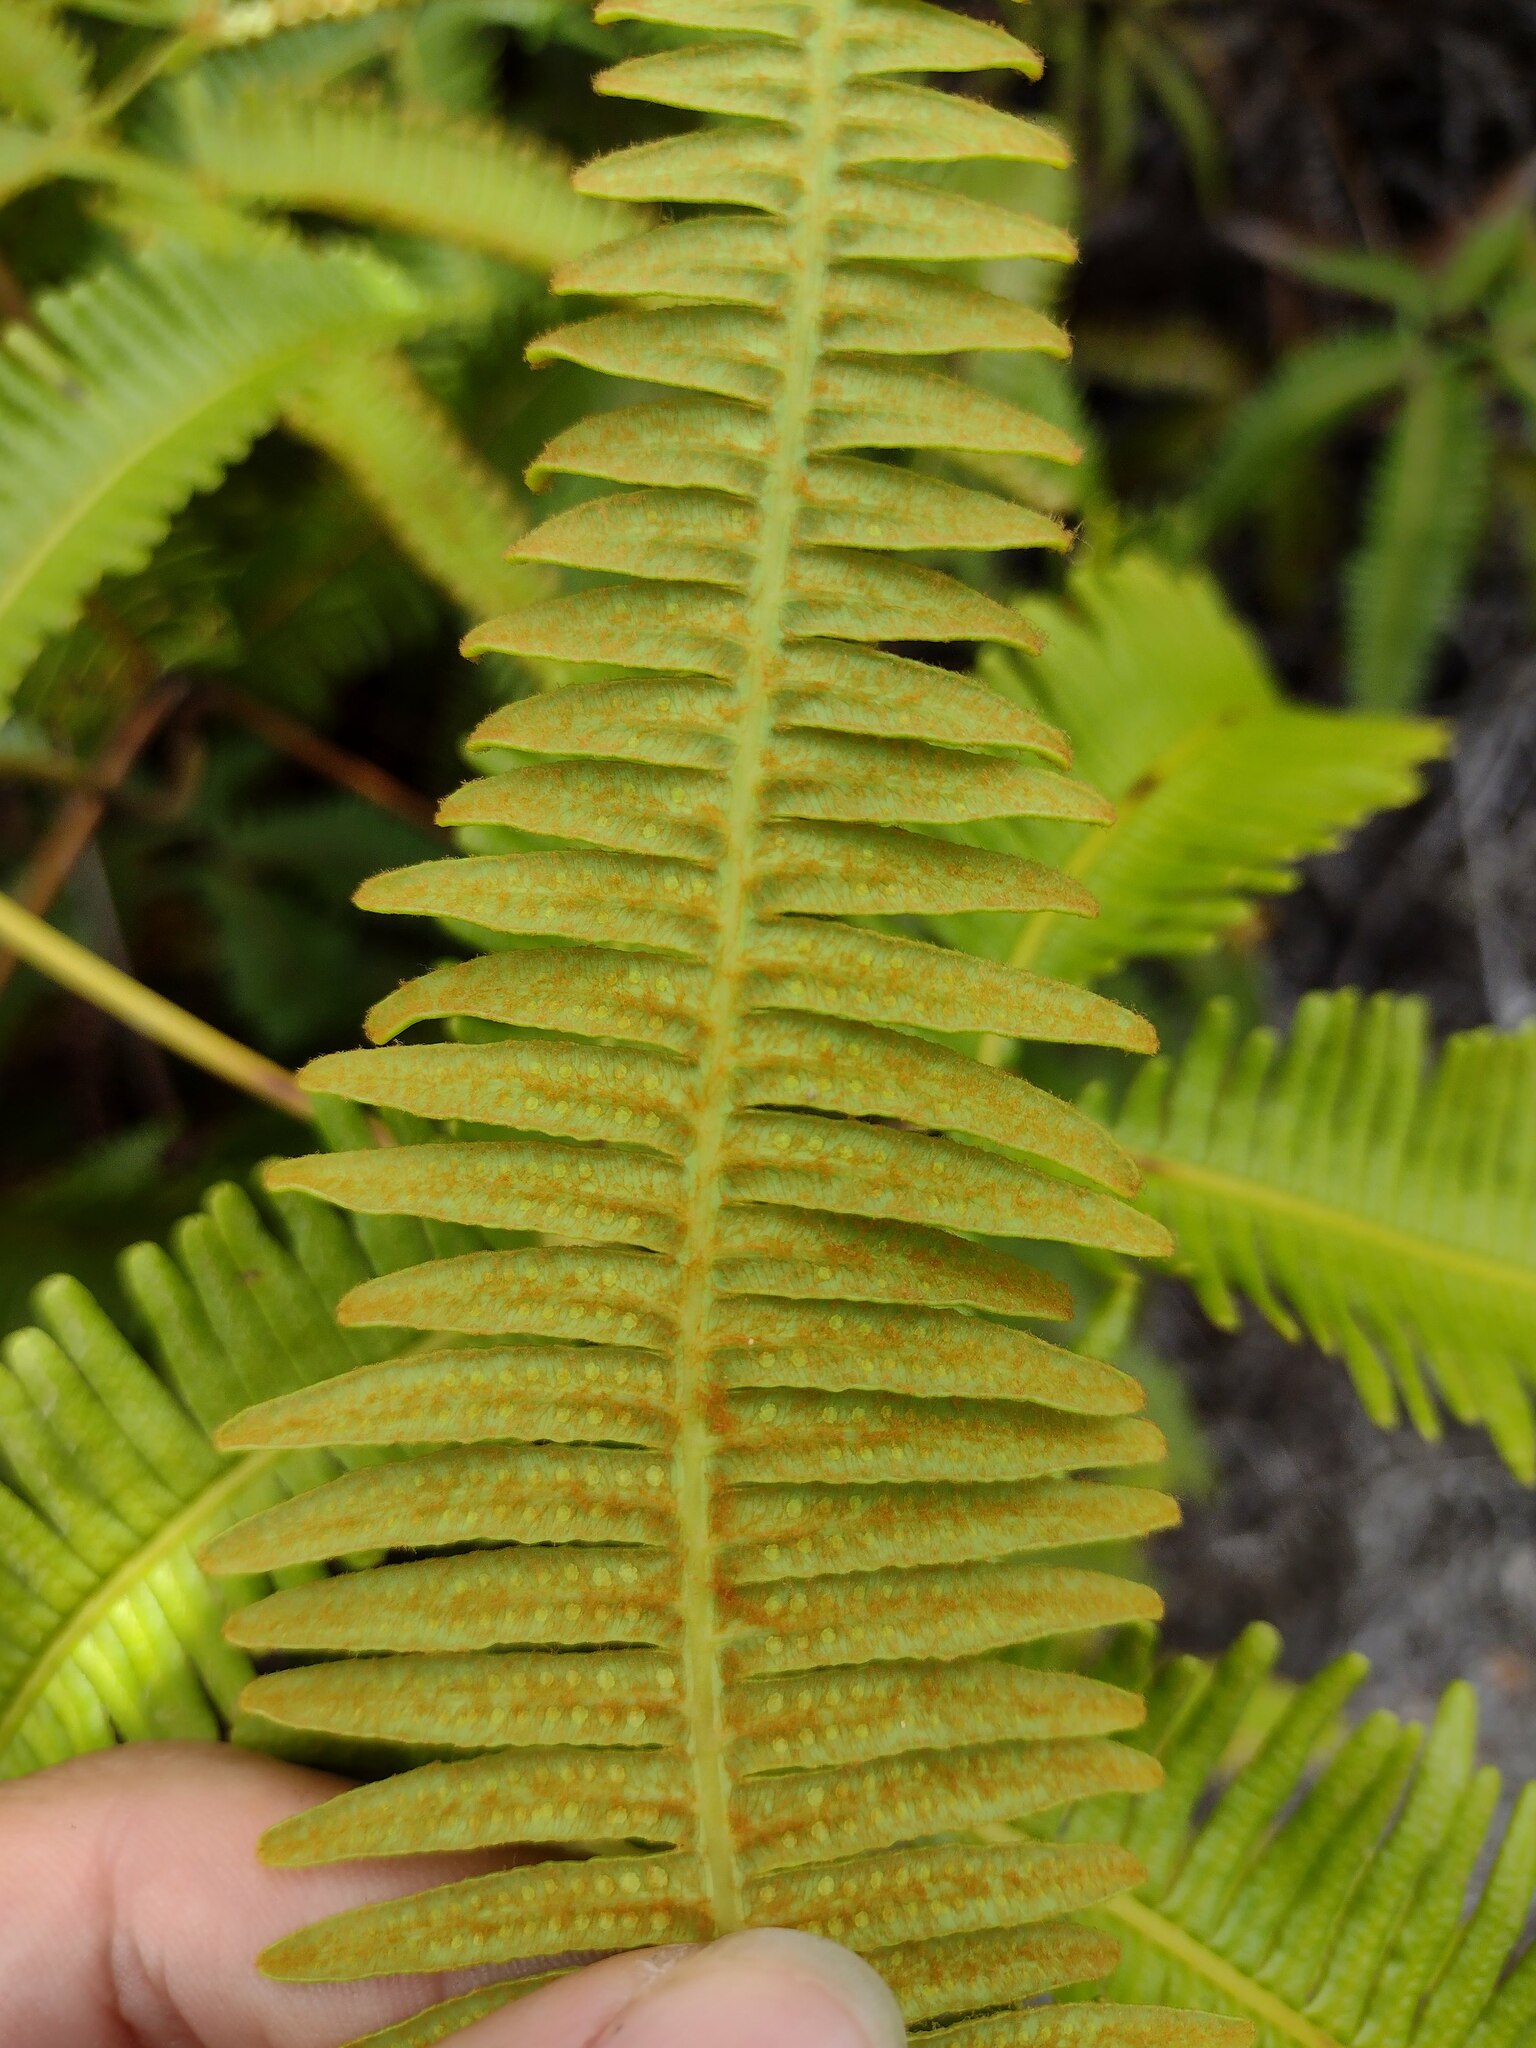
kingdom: Plantae
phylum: Tracheophyta
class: Polypodiopsida
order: Gleicheniales
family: Gleicheniaceae
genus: Dicranopteris
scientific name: Dicranopteris linearis
